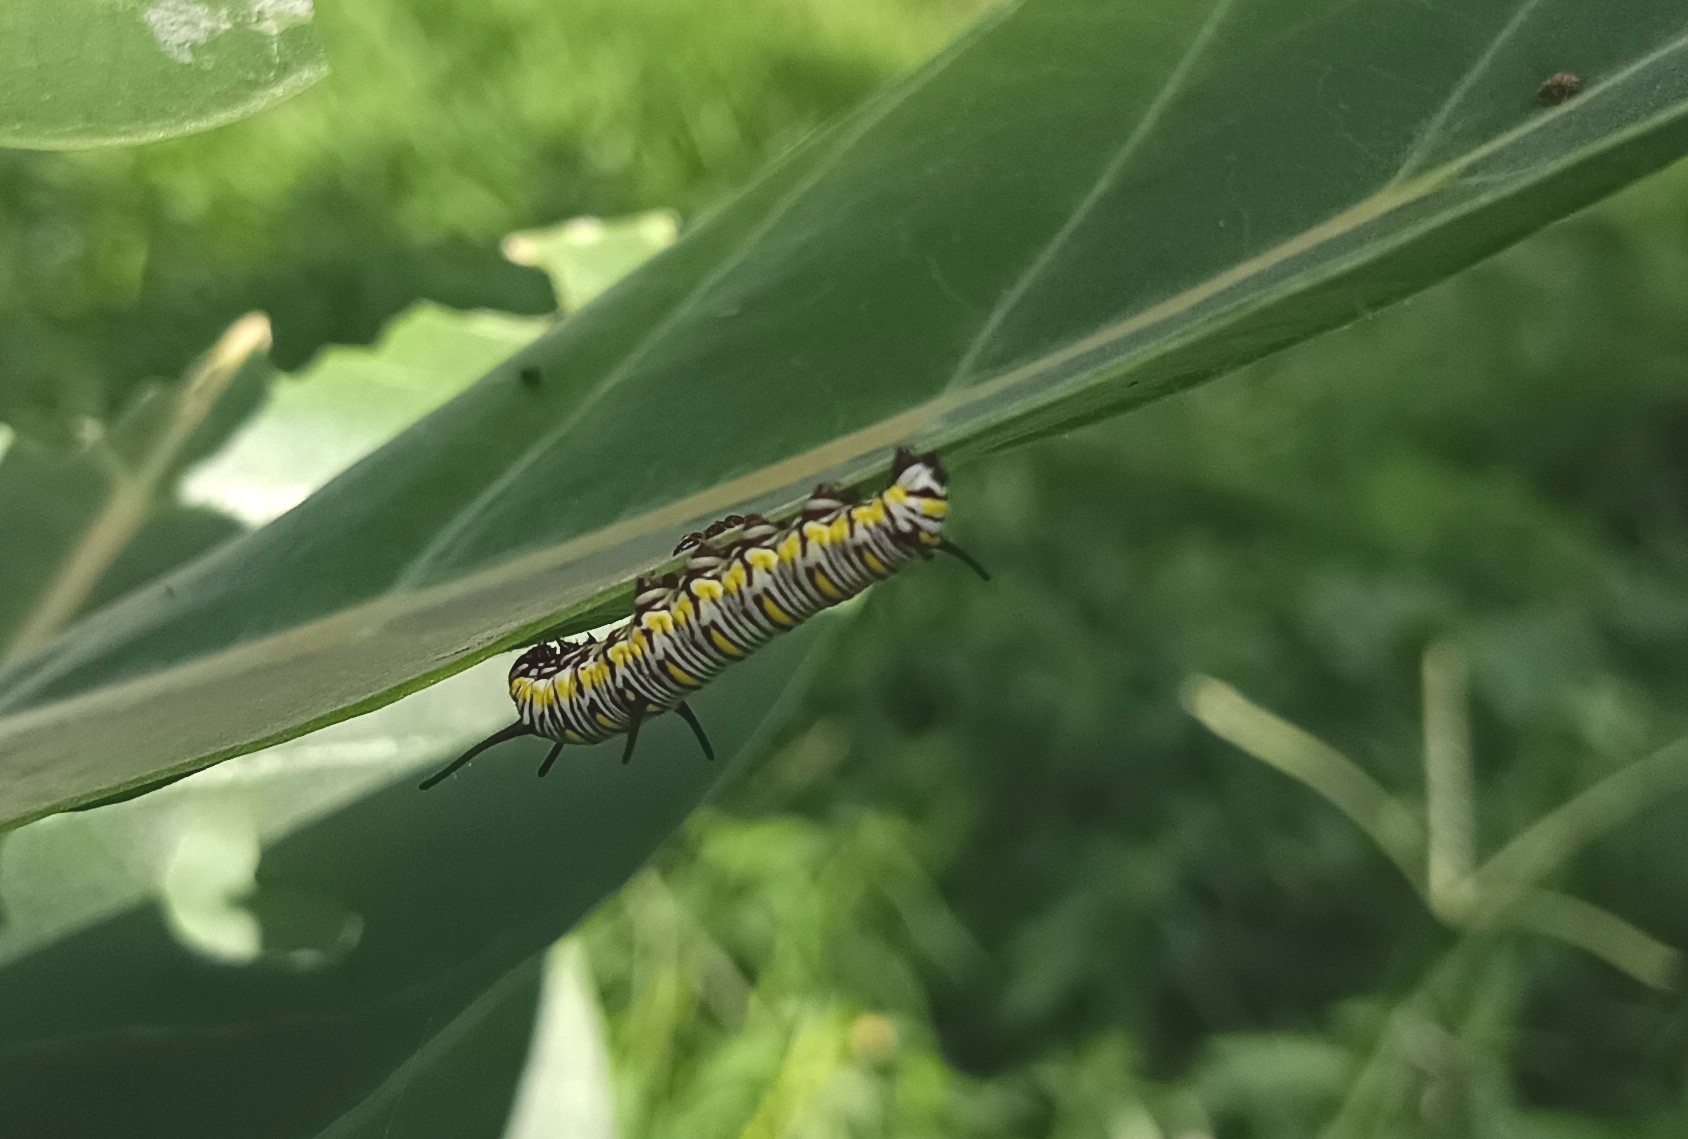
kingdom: Animalia
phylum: Arthropoda
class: Insecta
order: Lepidoptera
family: Nymphalidae
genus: Danaus
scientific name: Danaus chrysippus
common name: Plain tiger
